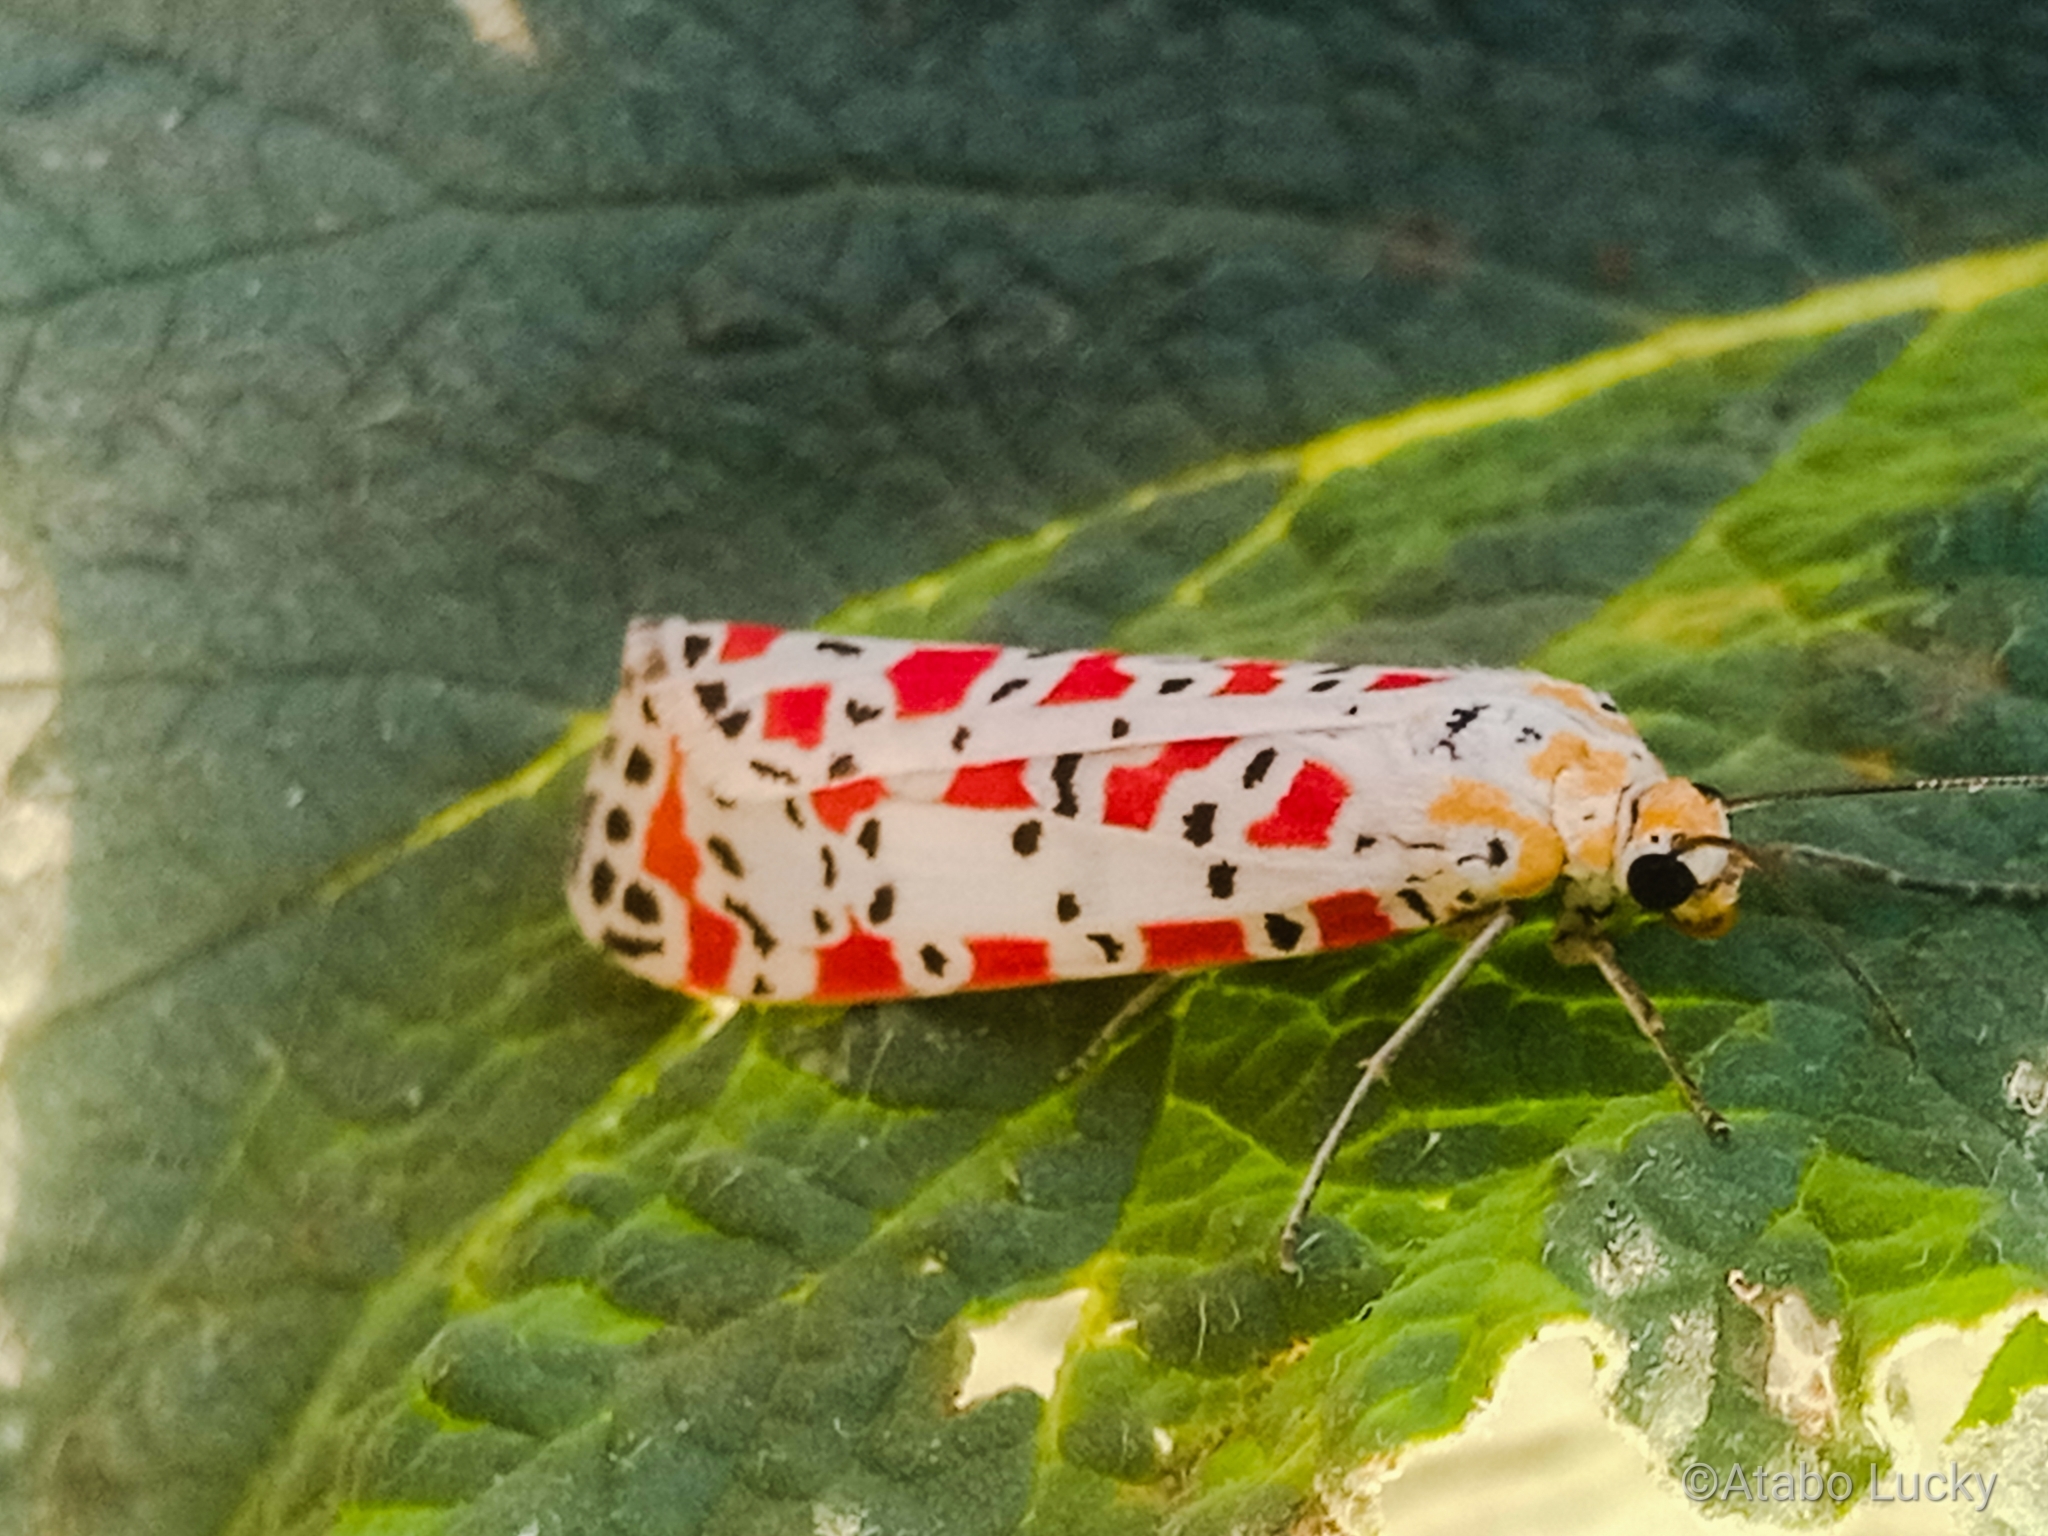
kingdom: Animalia
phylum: Arthropoda
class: Insecta
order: Lepidoptera
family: Erebidae
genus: Utetheisa
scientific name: Utetheisa pulchella
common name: Crimson speckled
